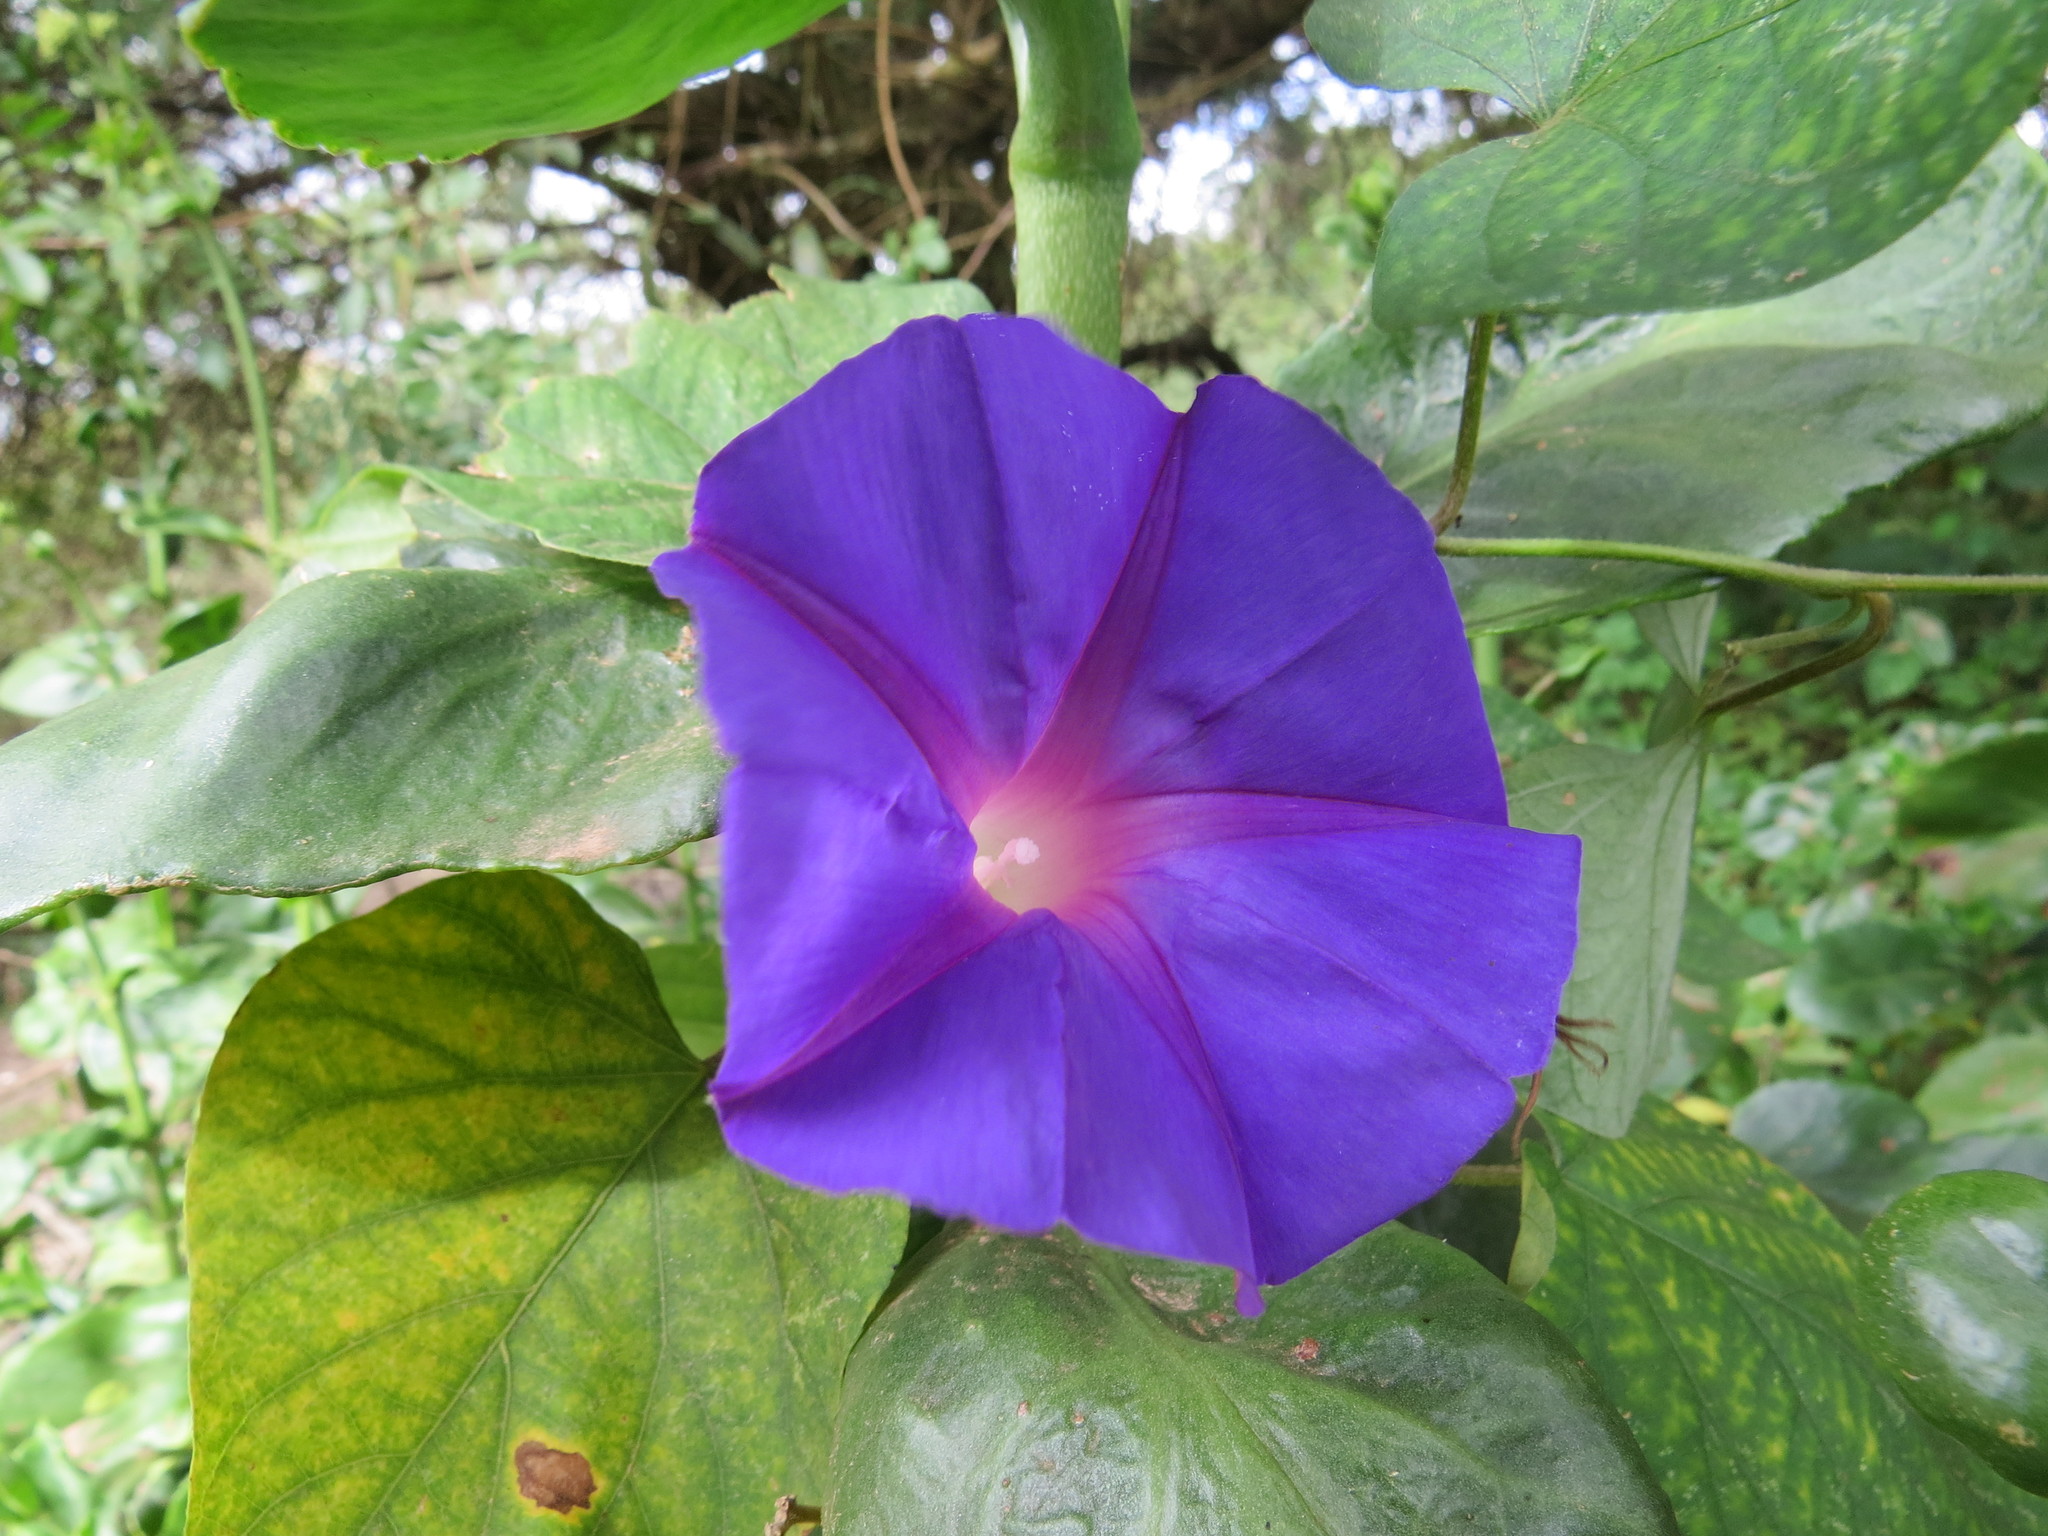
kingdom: Plantae
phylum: Tracheophyta
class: Magnoliopsida
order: Solanales
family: Convolvulaceae
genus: Ipomoea
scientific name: Ipomoea indica
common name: Blue dawnflower
